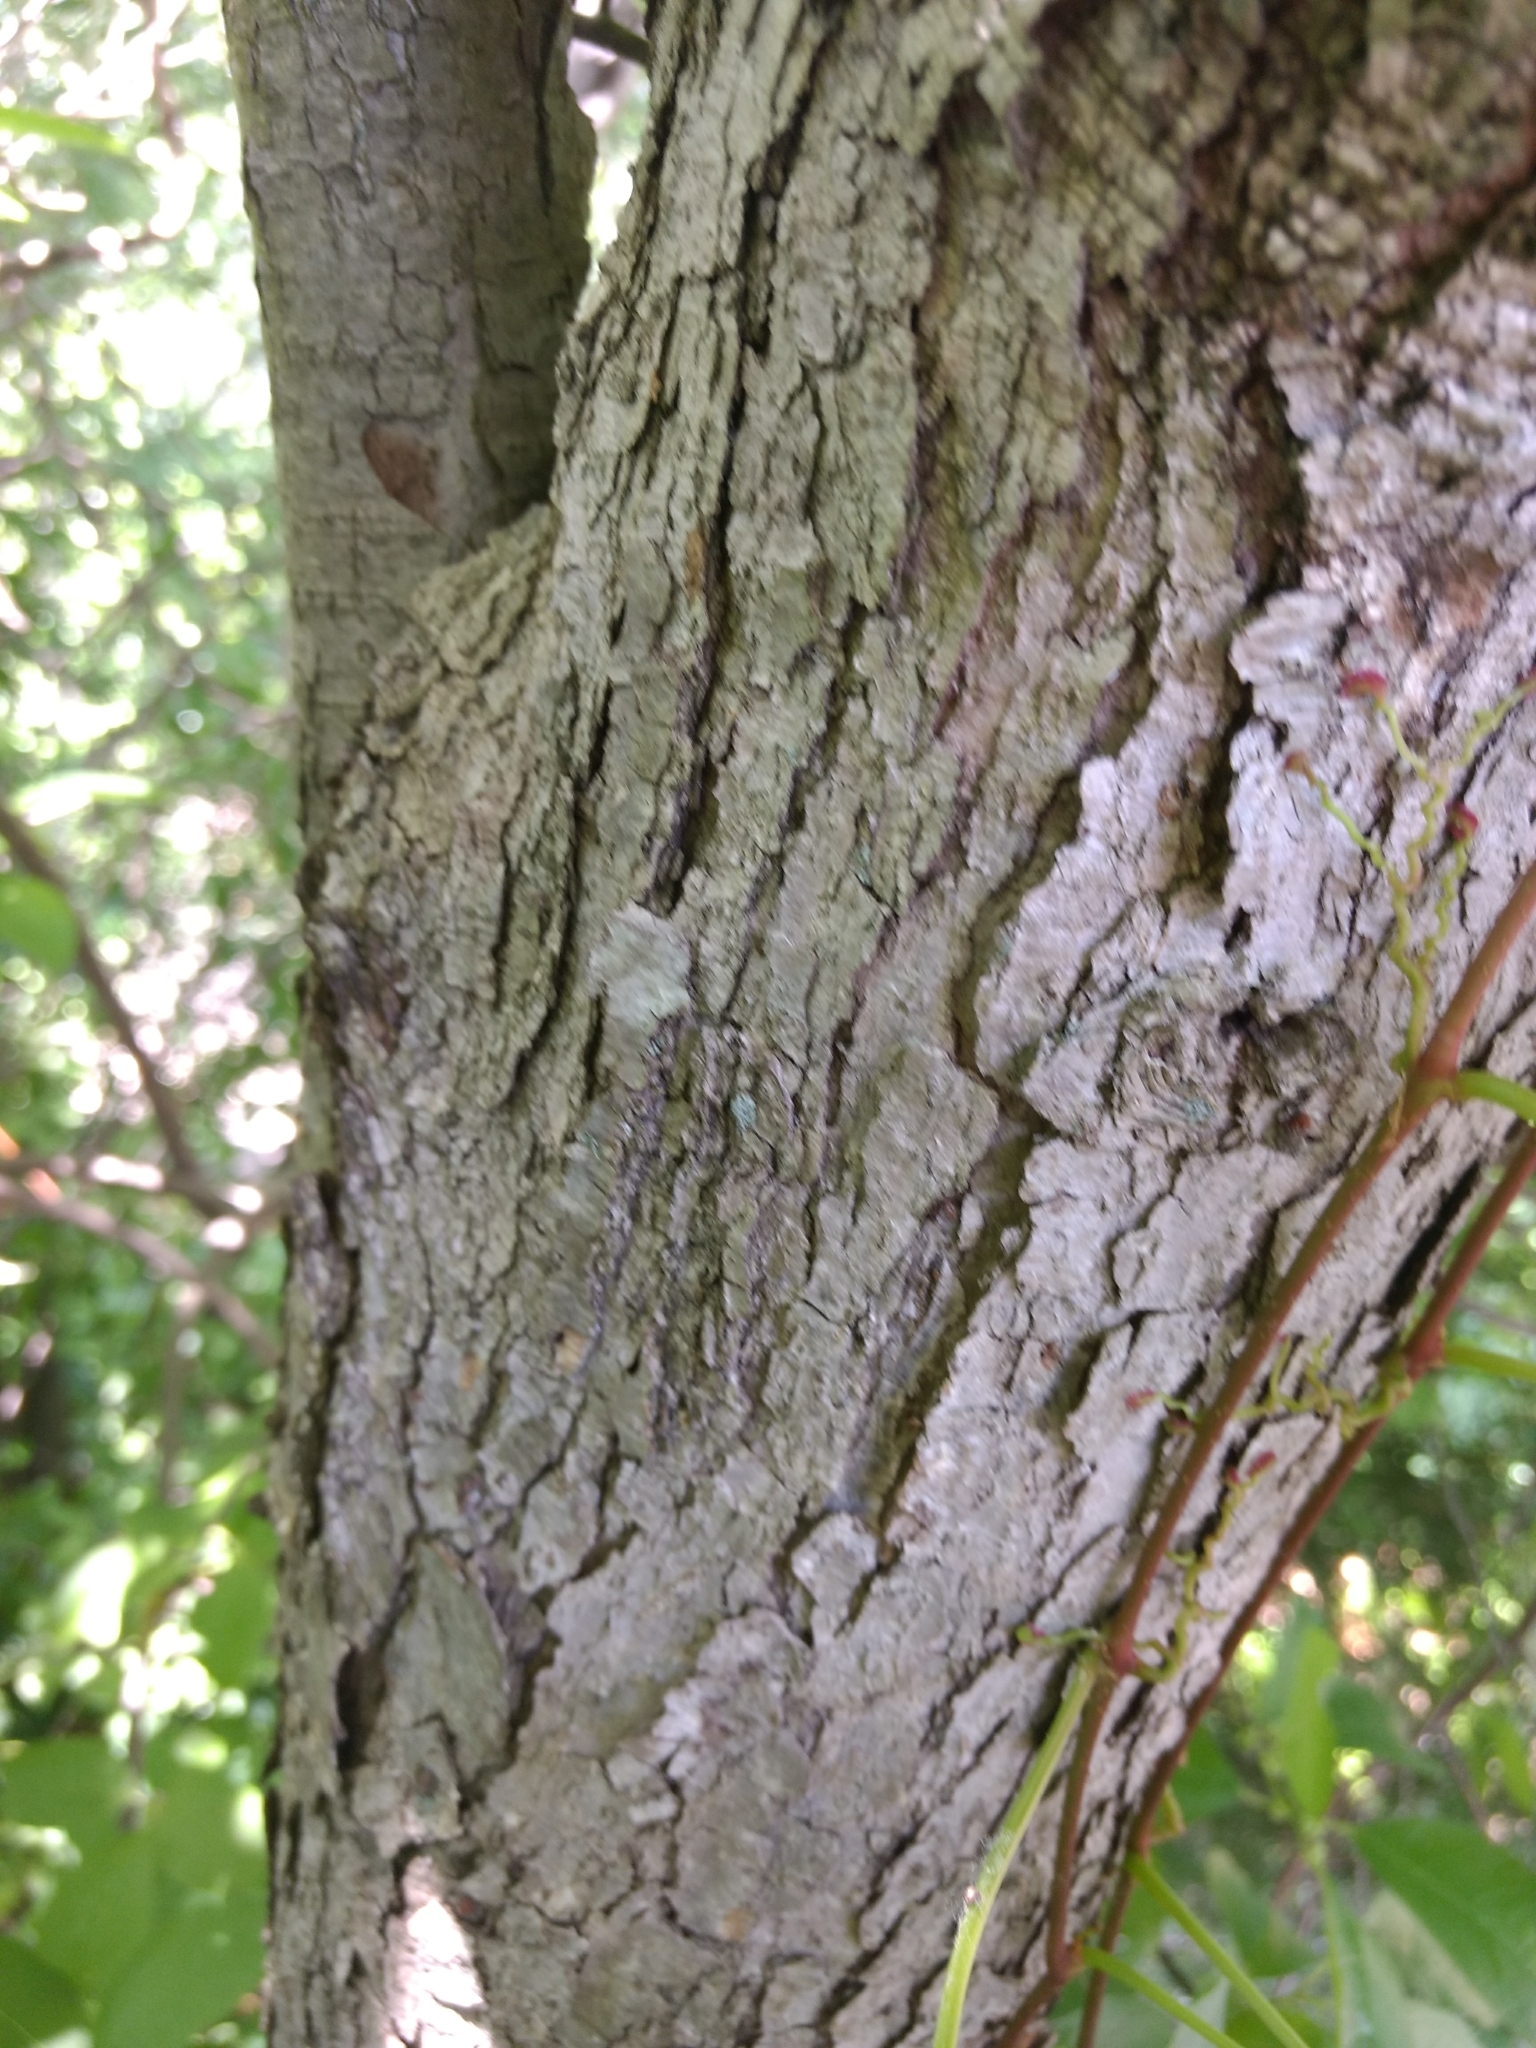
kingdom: Plantae
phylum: Tracheophyta
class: Magnoliopsida
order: Fagales
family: Fagaceae
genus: Quercus
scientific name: Quercus alba
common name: White oak
